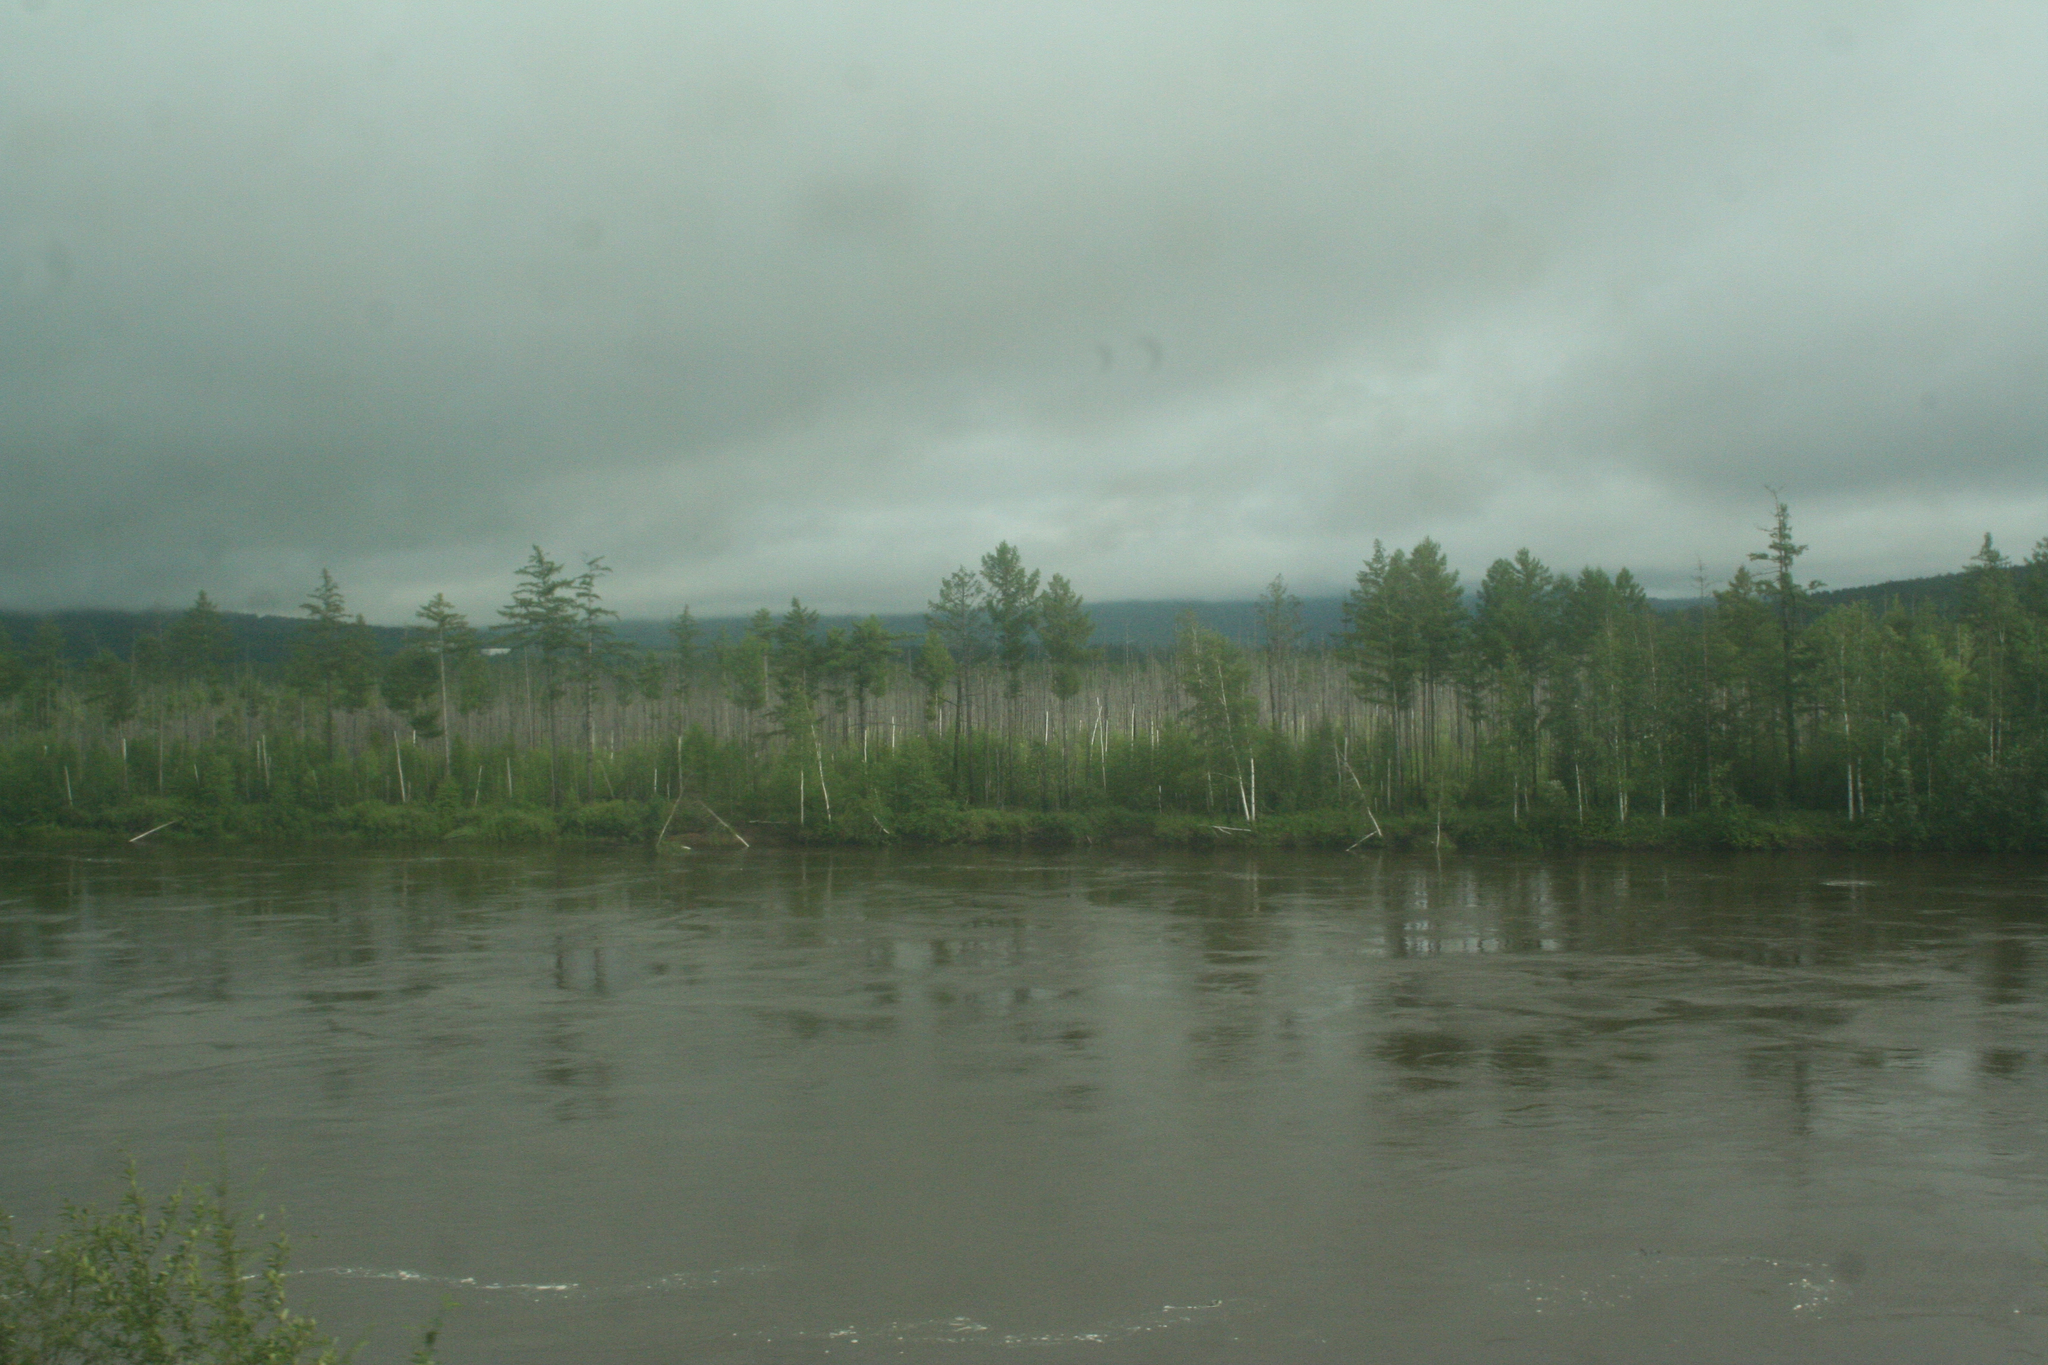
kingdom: Plantae
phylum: Tracheophyta
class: Pinopsida
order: Pinales
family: Pinaceae
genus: Larix
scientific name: Larix gmelinii
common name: Dahurian larch
